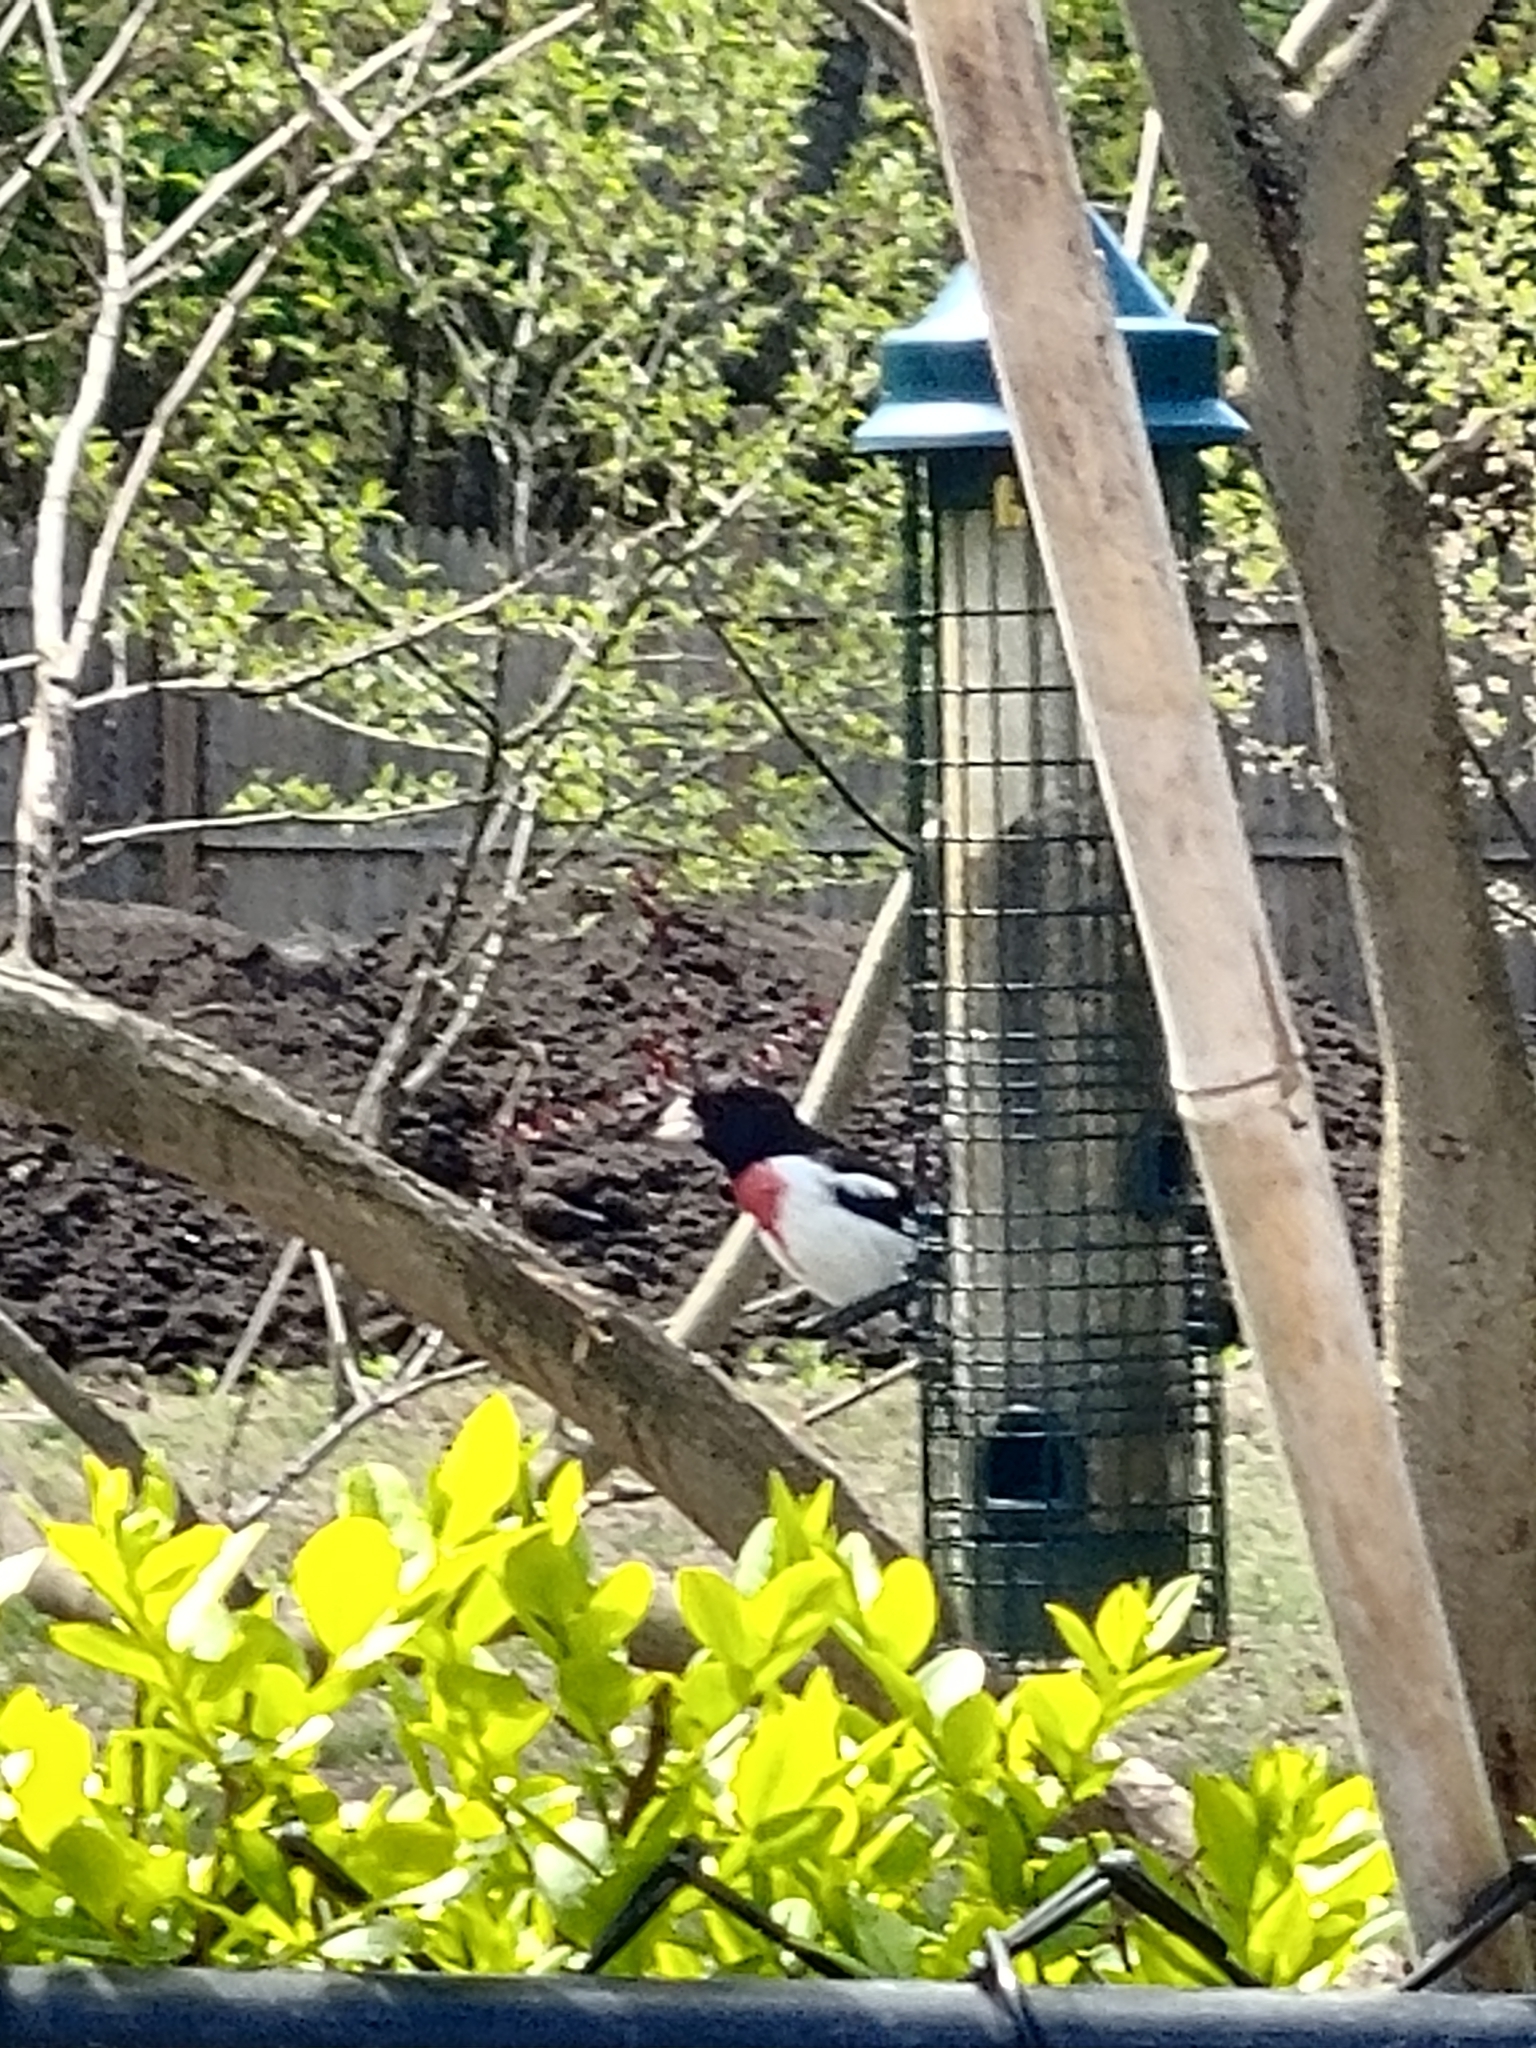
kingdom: Animalia
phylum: Chordata
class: Aves
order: Passeriformes
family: Cardinalidae
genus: Pheucticus
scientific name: Pheucticus ludovicianus
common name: Rose-breasted grosbeak
